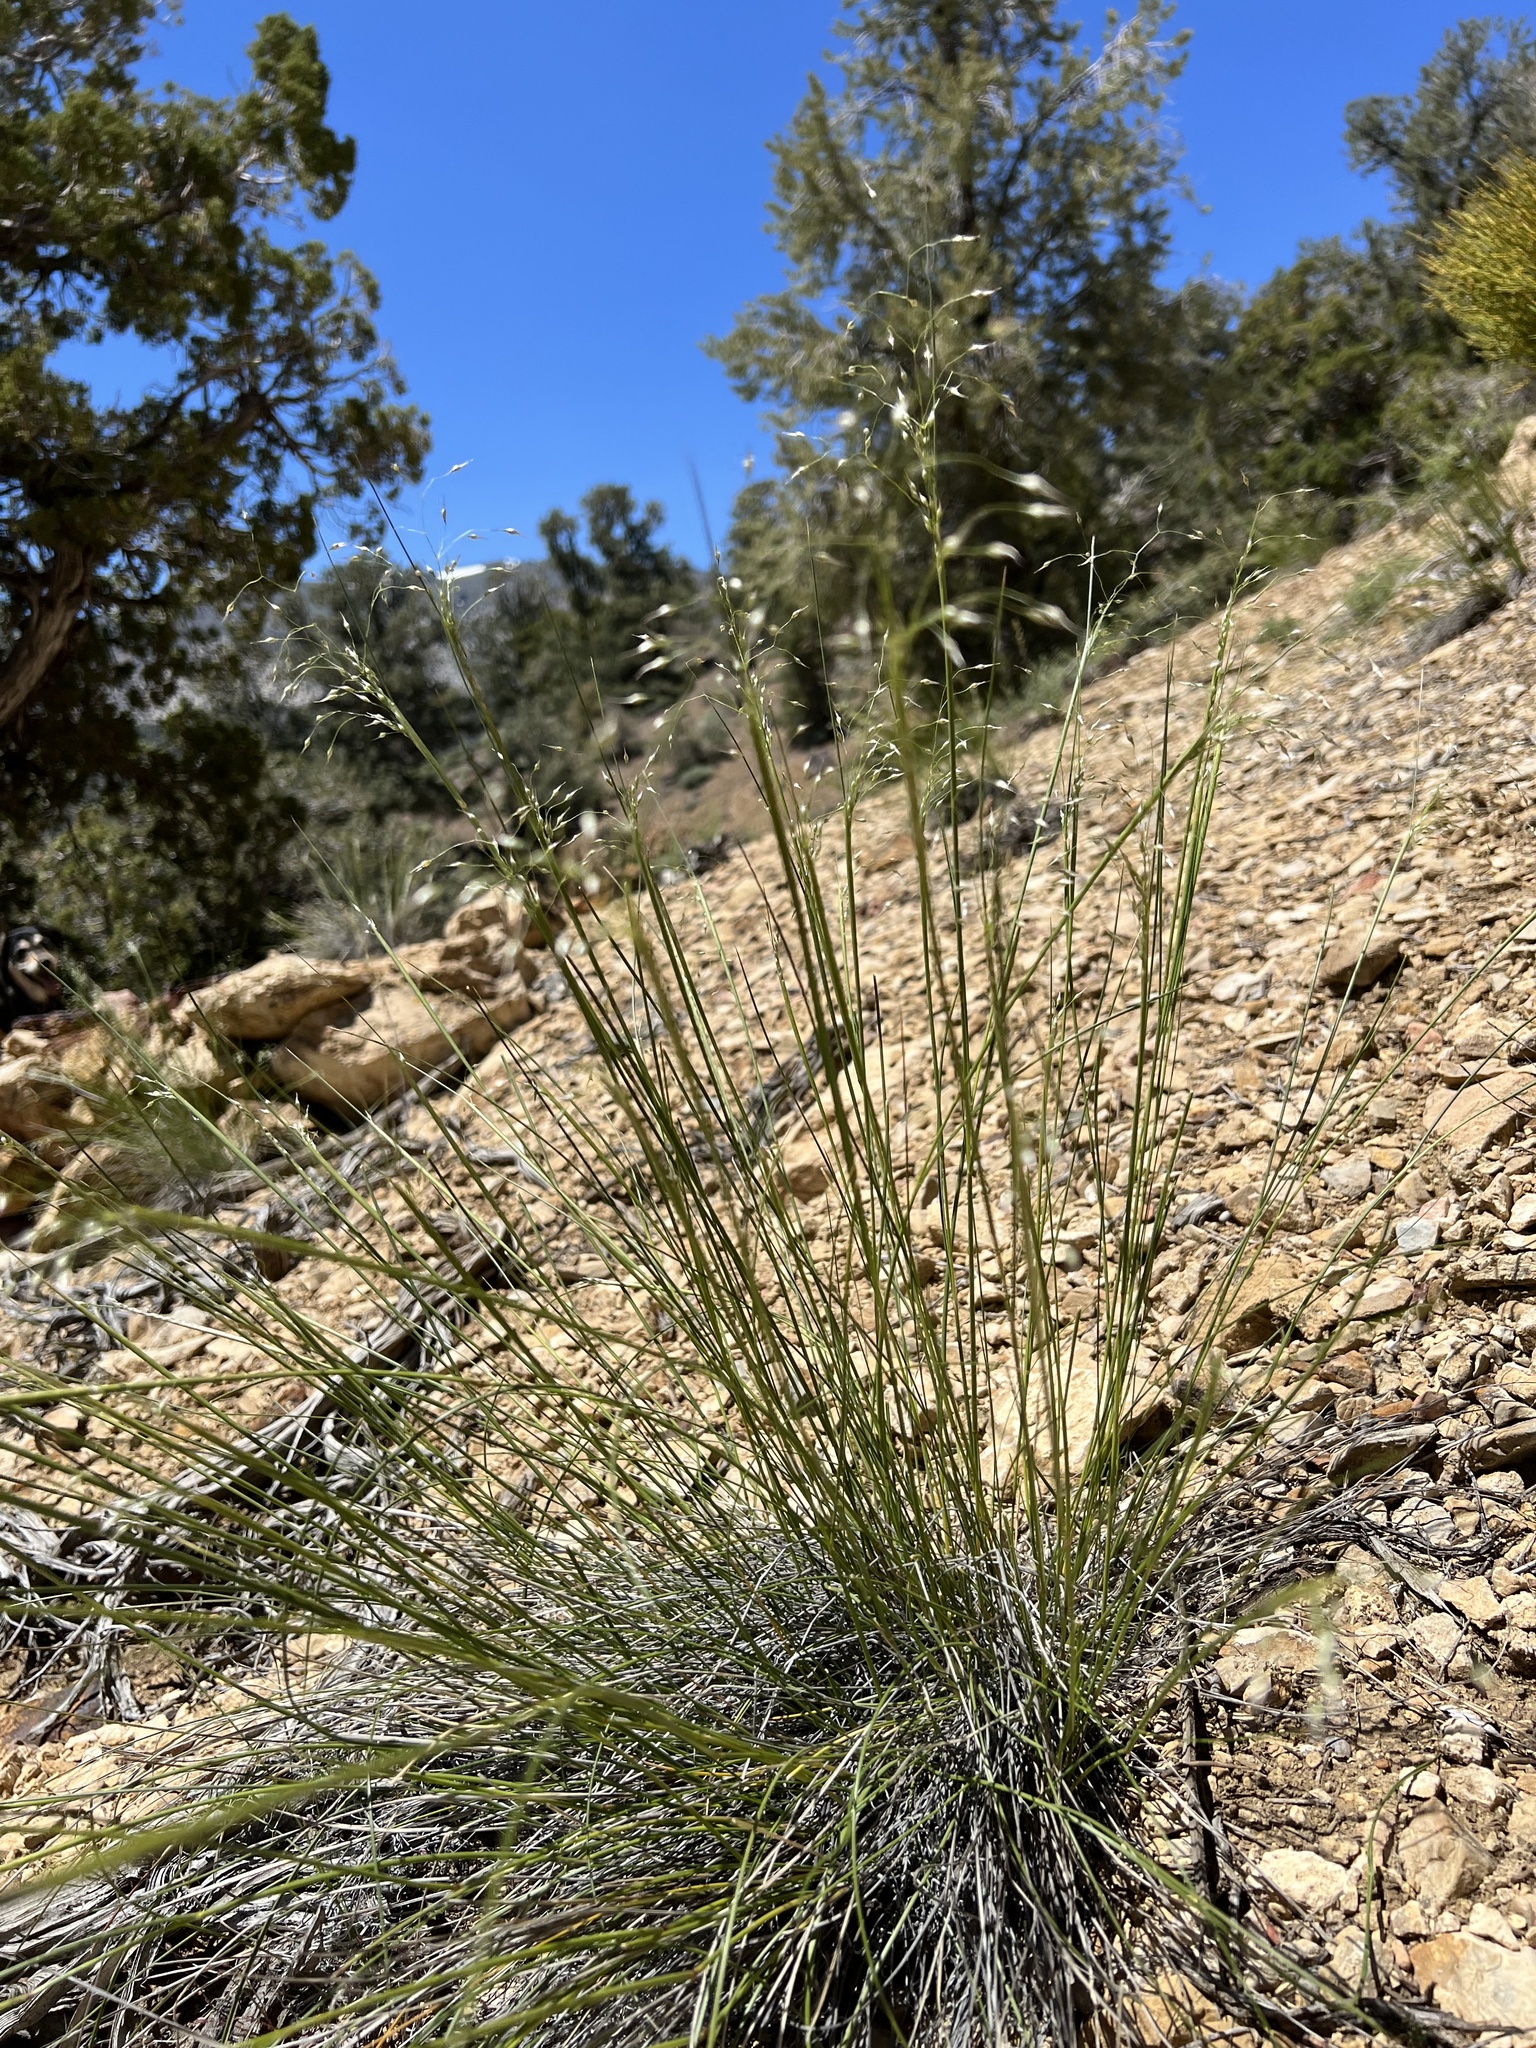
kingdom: Plantae
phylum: Tracheophyta
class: Liliopsida
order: Poales
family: Poaceae
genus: Eriocoma
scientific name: Eriocoma hymenoides
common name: Indian mountain ricegrass
